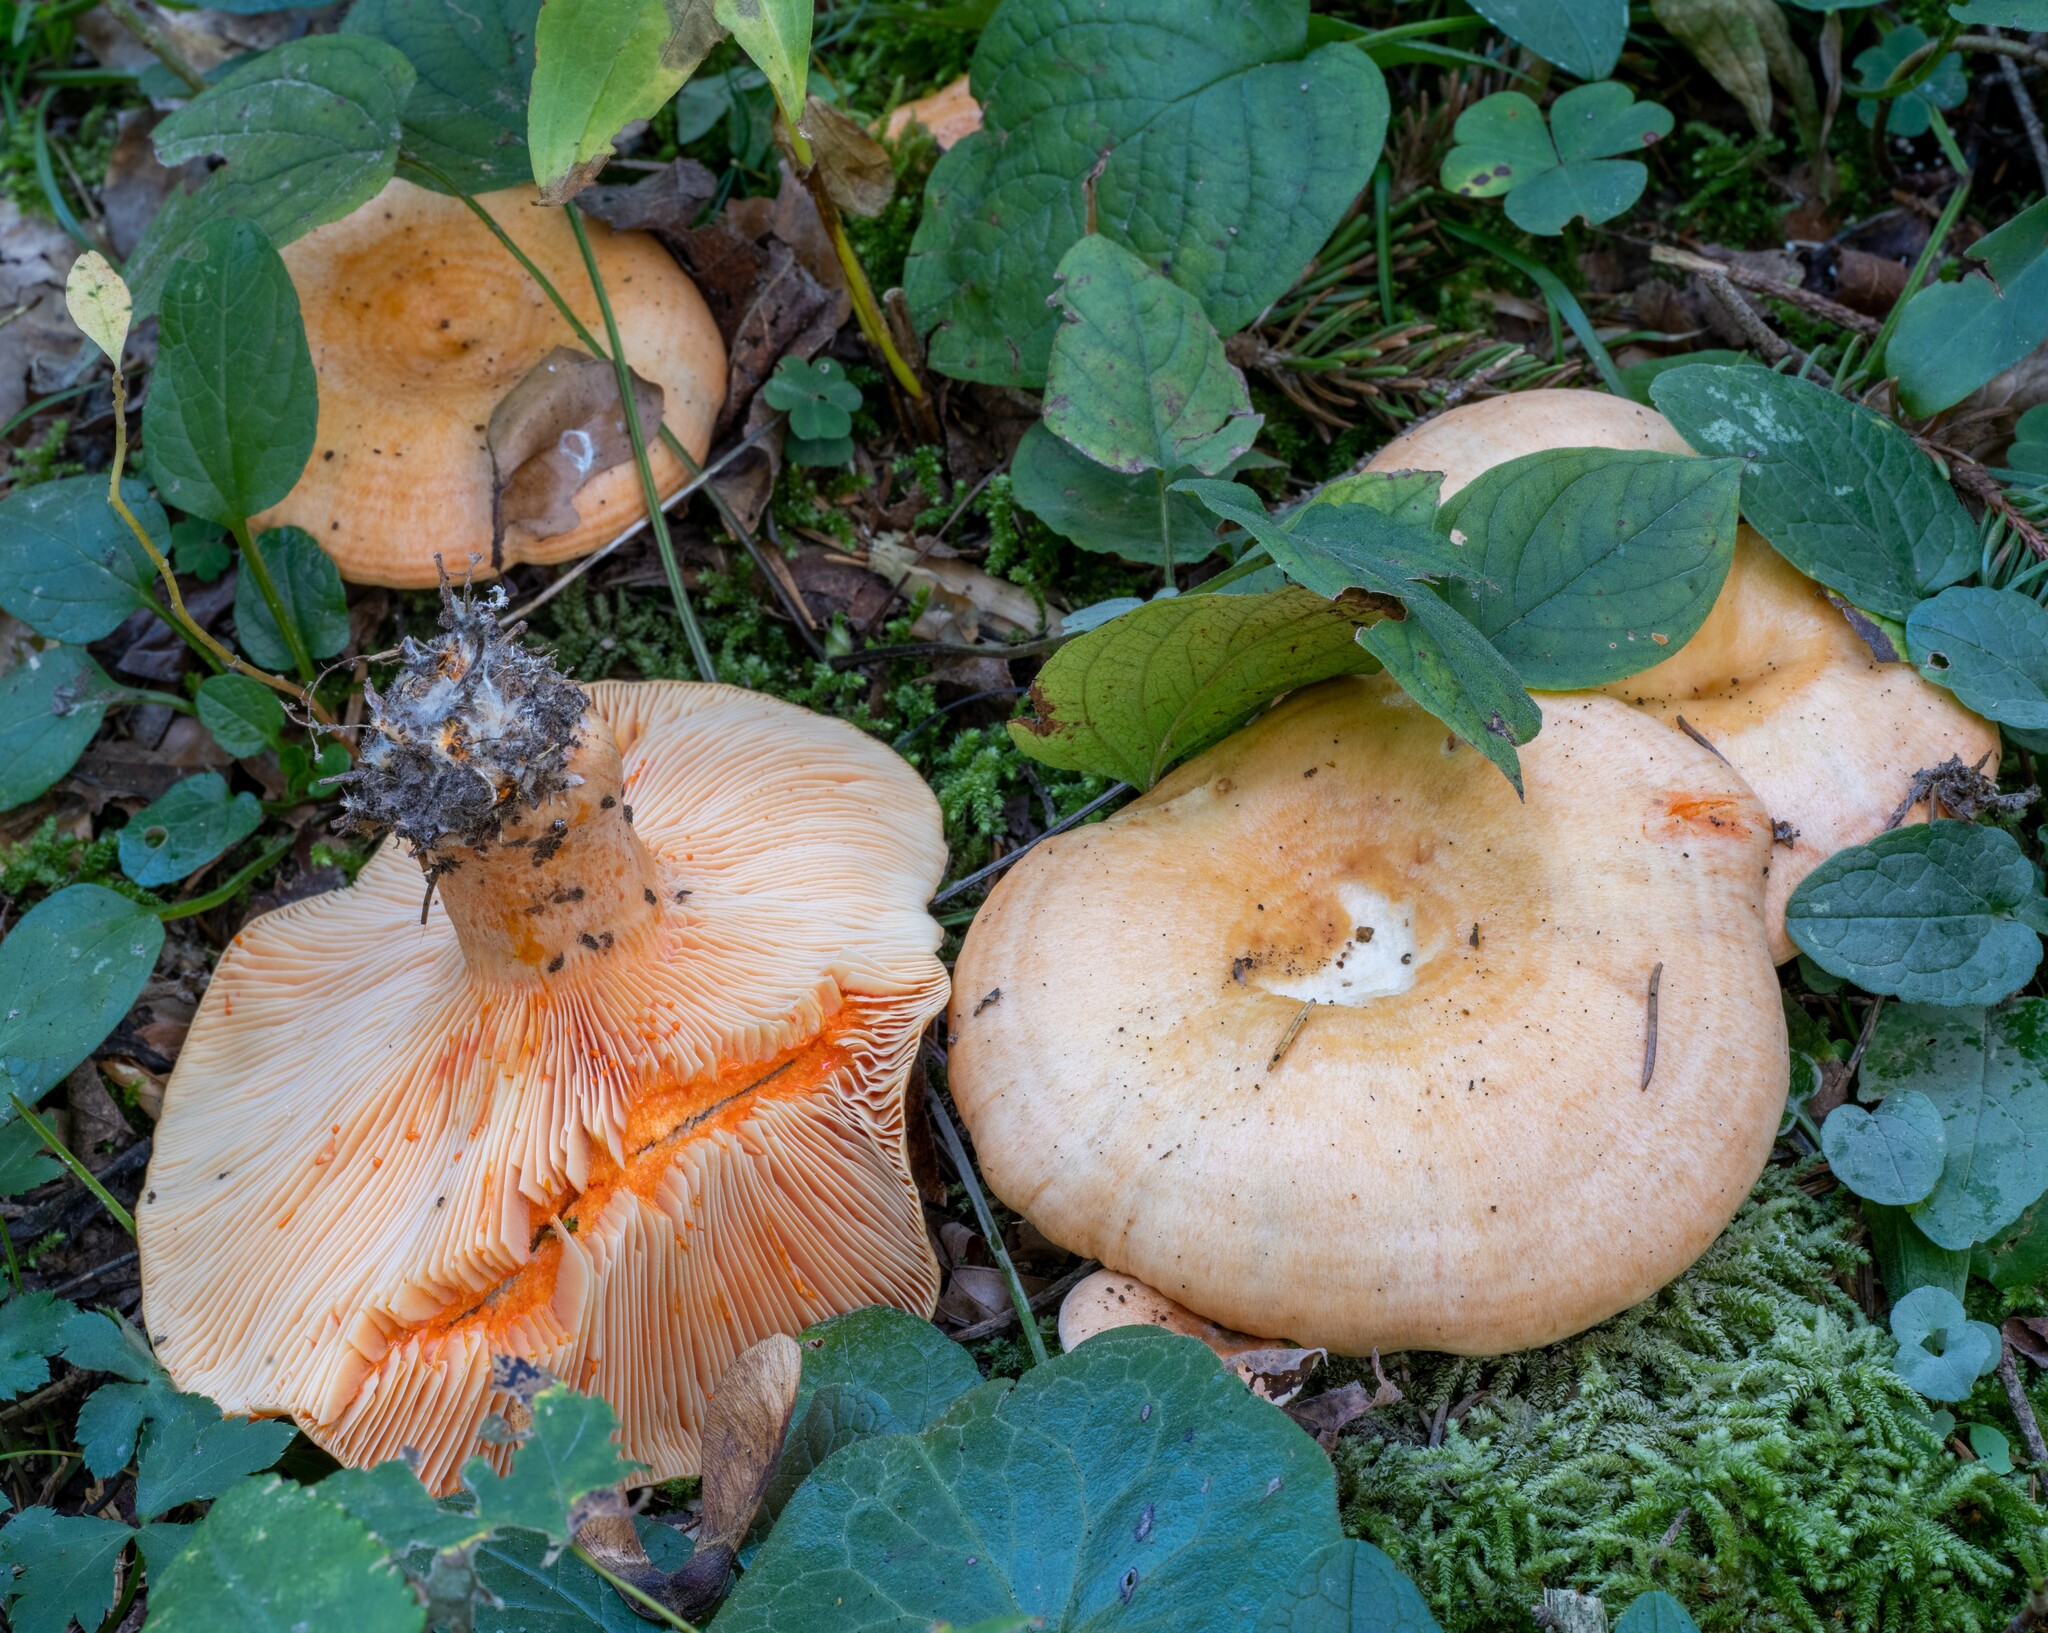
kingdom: Fungi
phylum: Basidiomycota
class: Agaricomycetes
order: Russulales
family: Russulaceae
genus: Lactarius
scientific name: Lactarius salmonicolor
